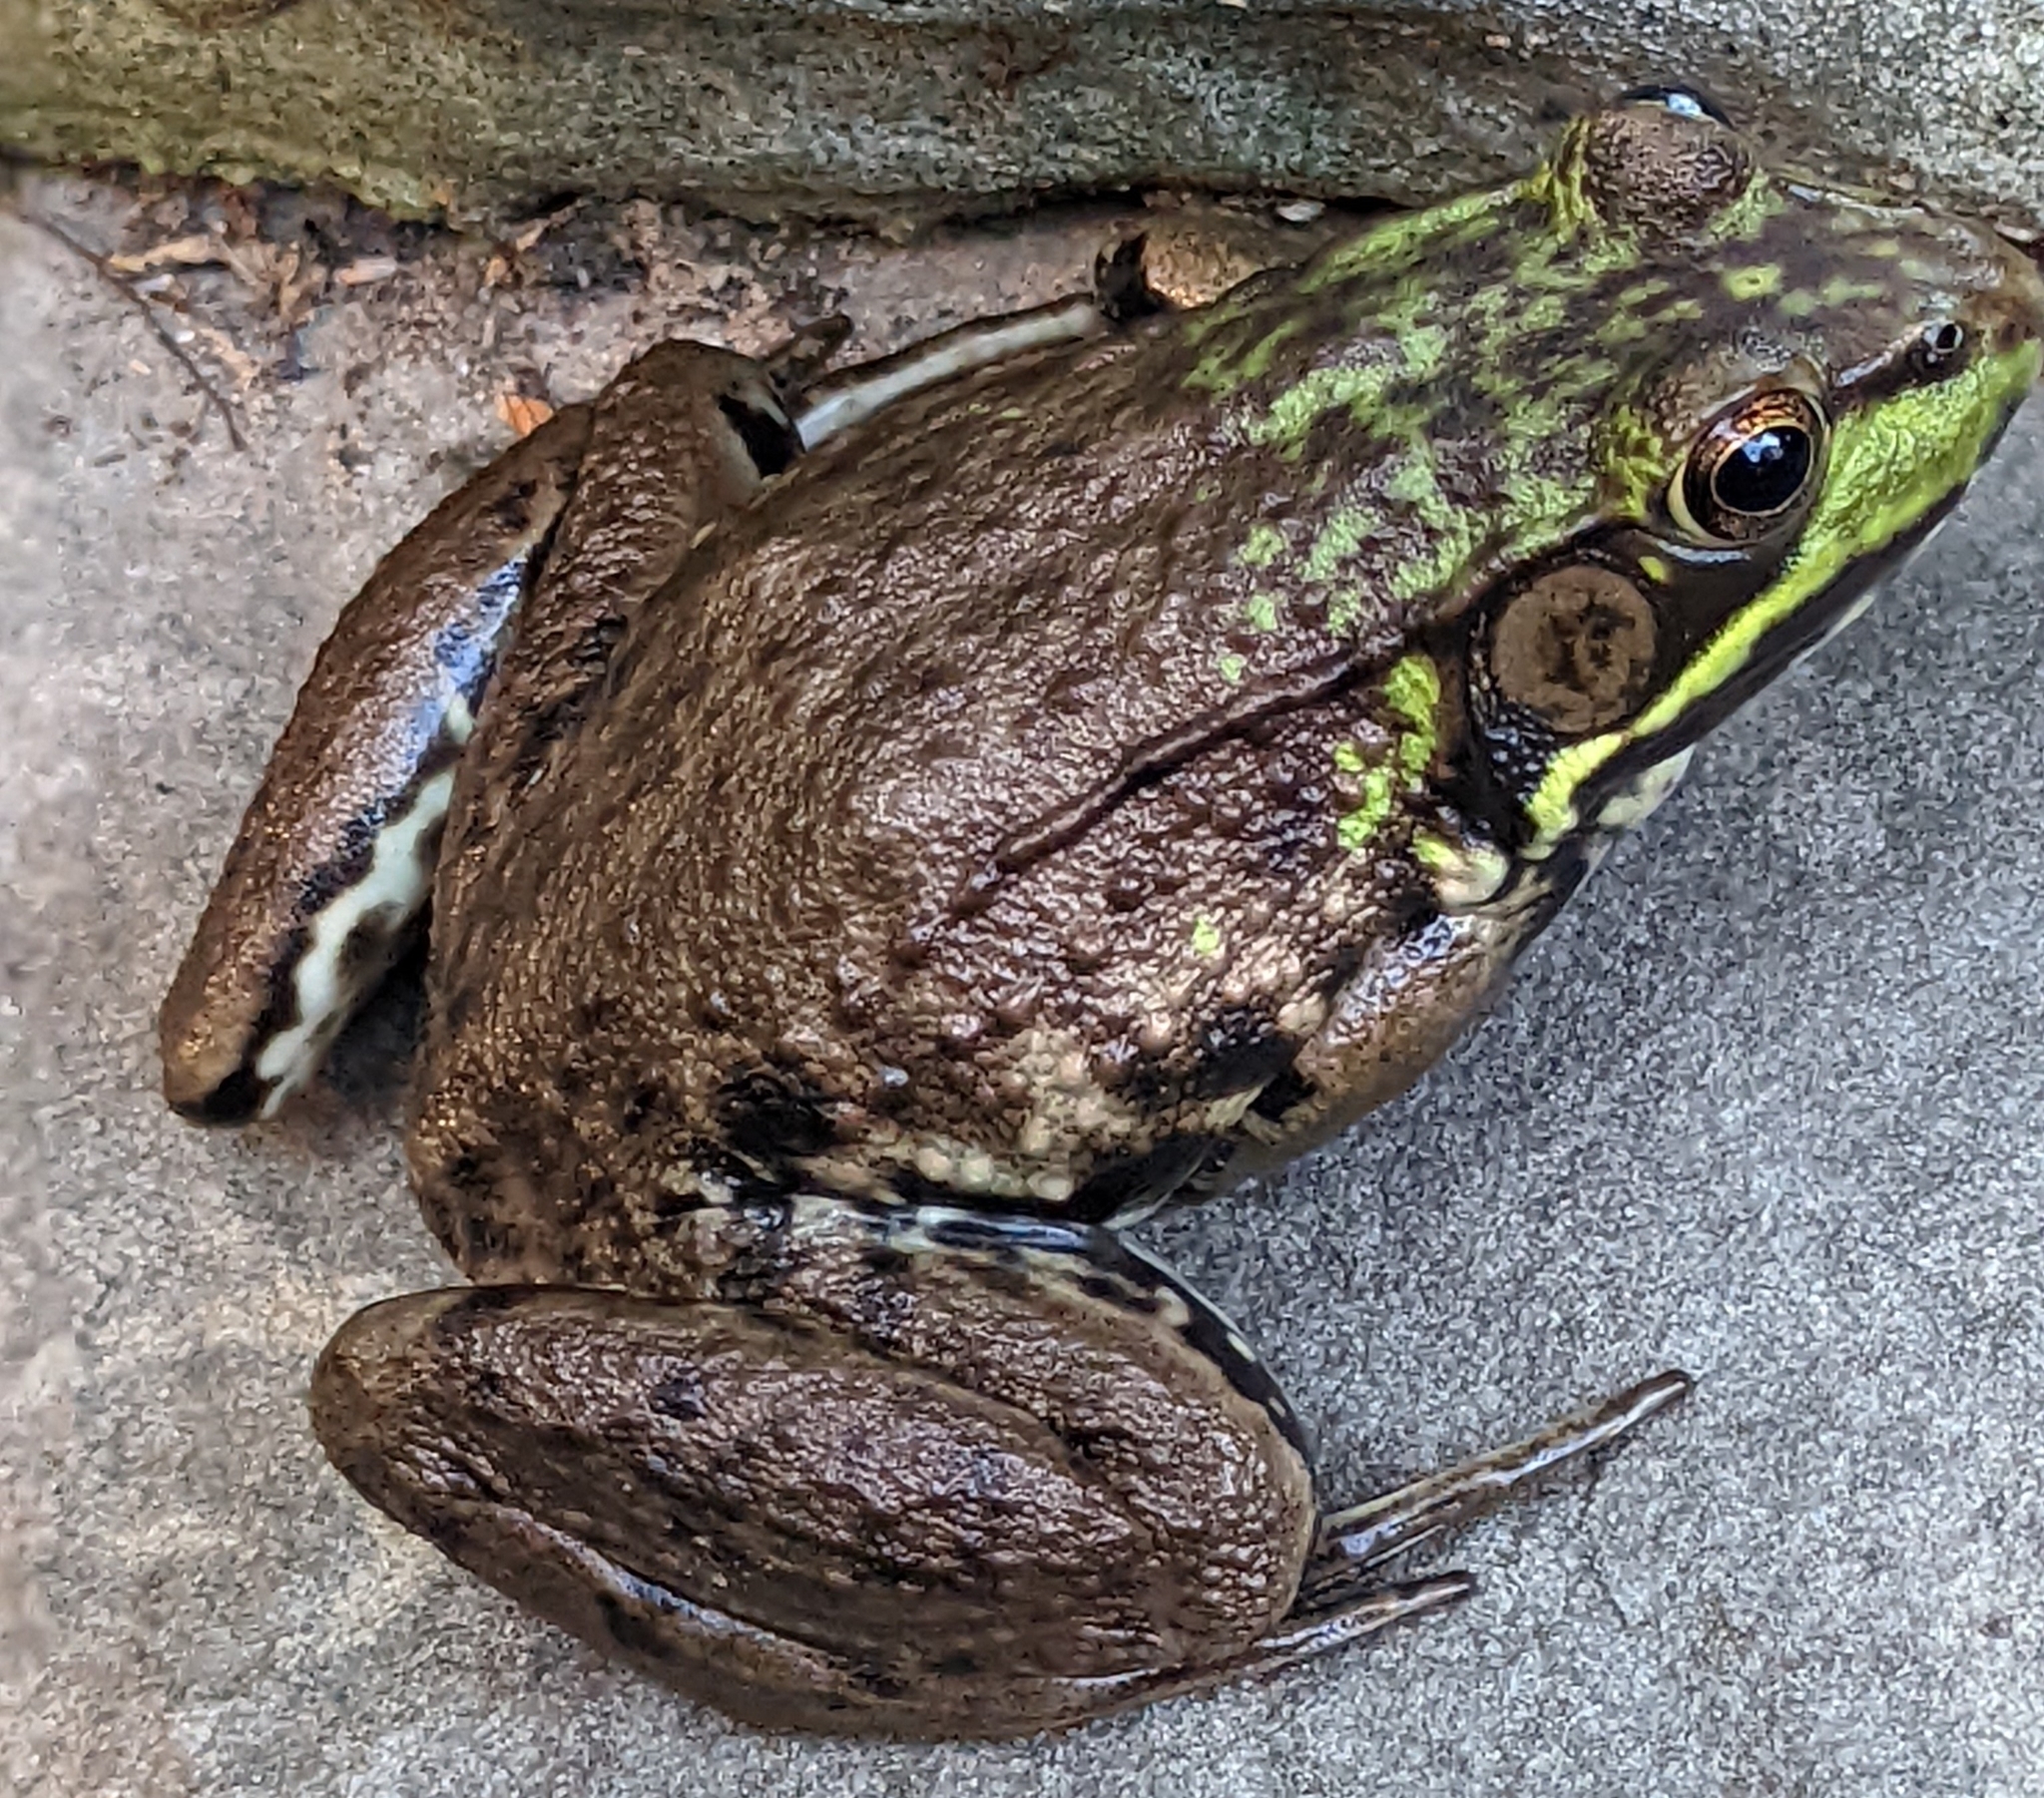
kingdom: Animalia
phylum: Chordata
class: Amphibia
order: Anura
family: Ranidae
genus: Lithobates
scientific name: Lithobates clamitans
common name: Green frog
